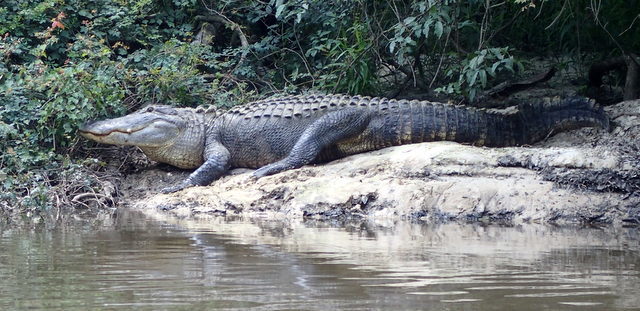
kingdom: Animalia
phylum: Chordata
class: Crocodylia
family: Alligatoridae
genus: Alligator
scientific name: Alligator mississippiensis
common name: American alligator
